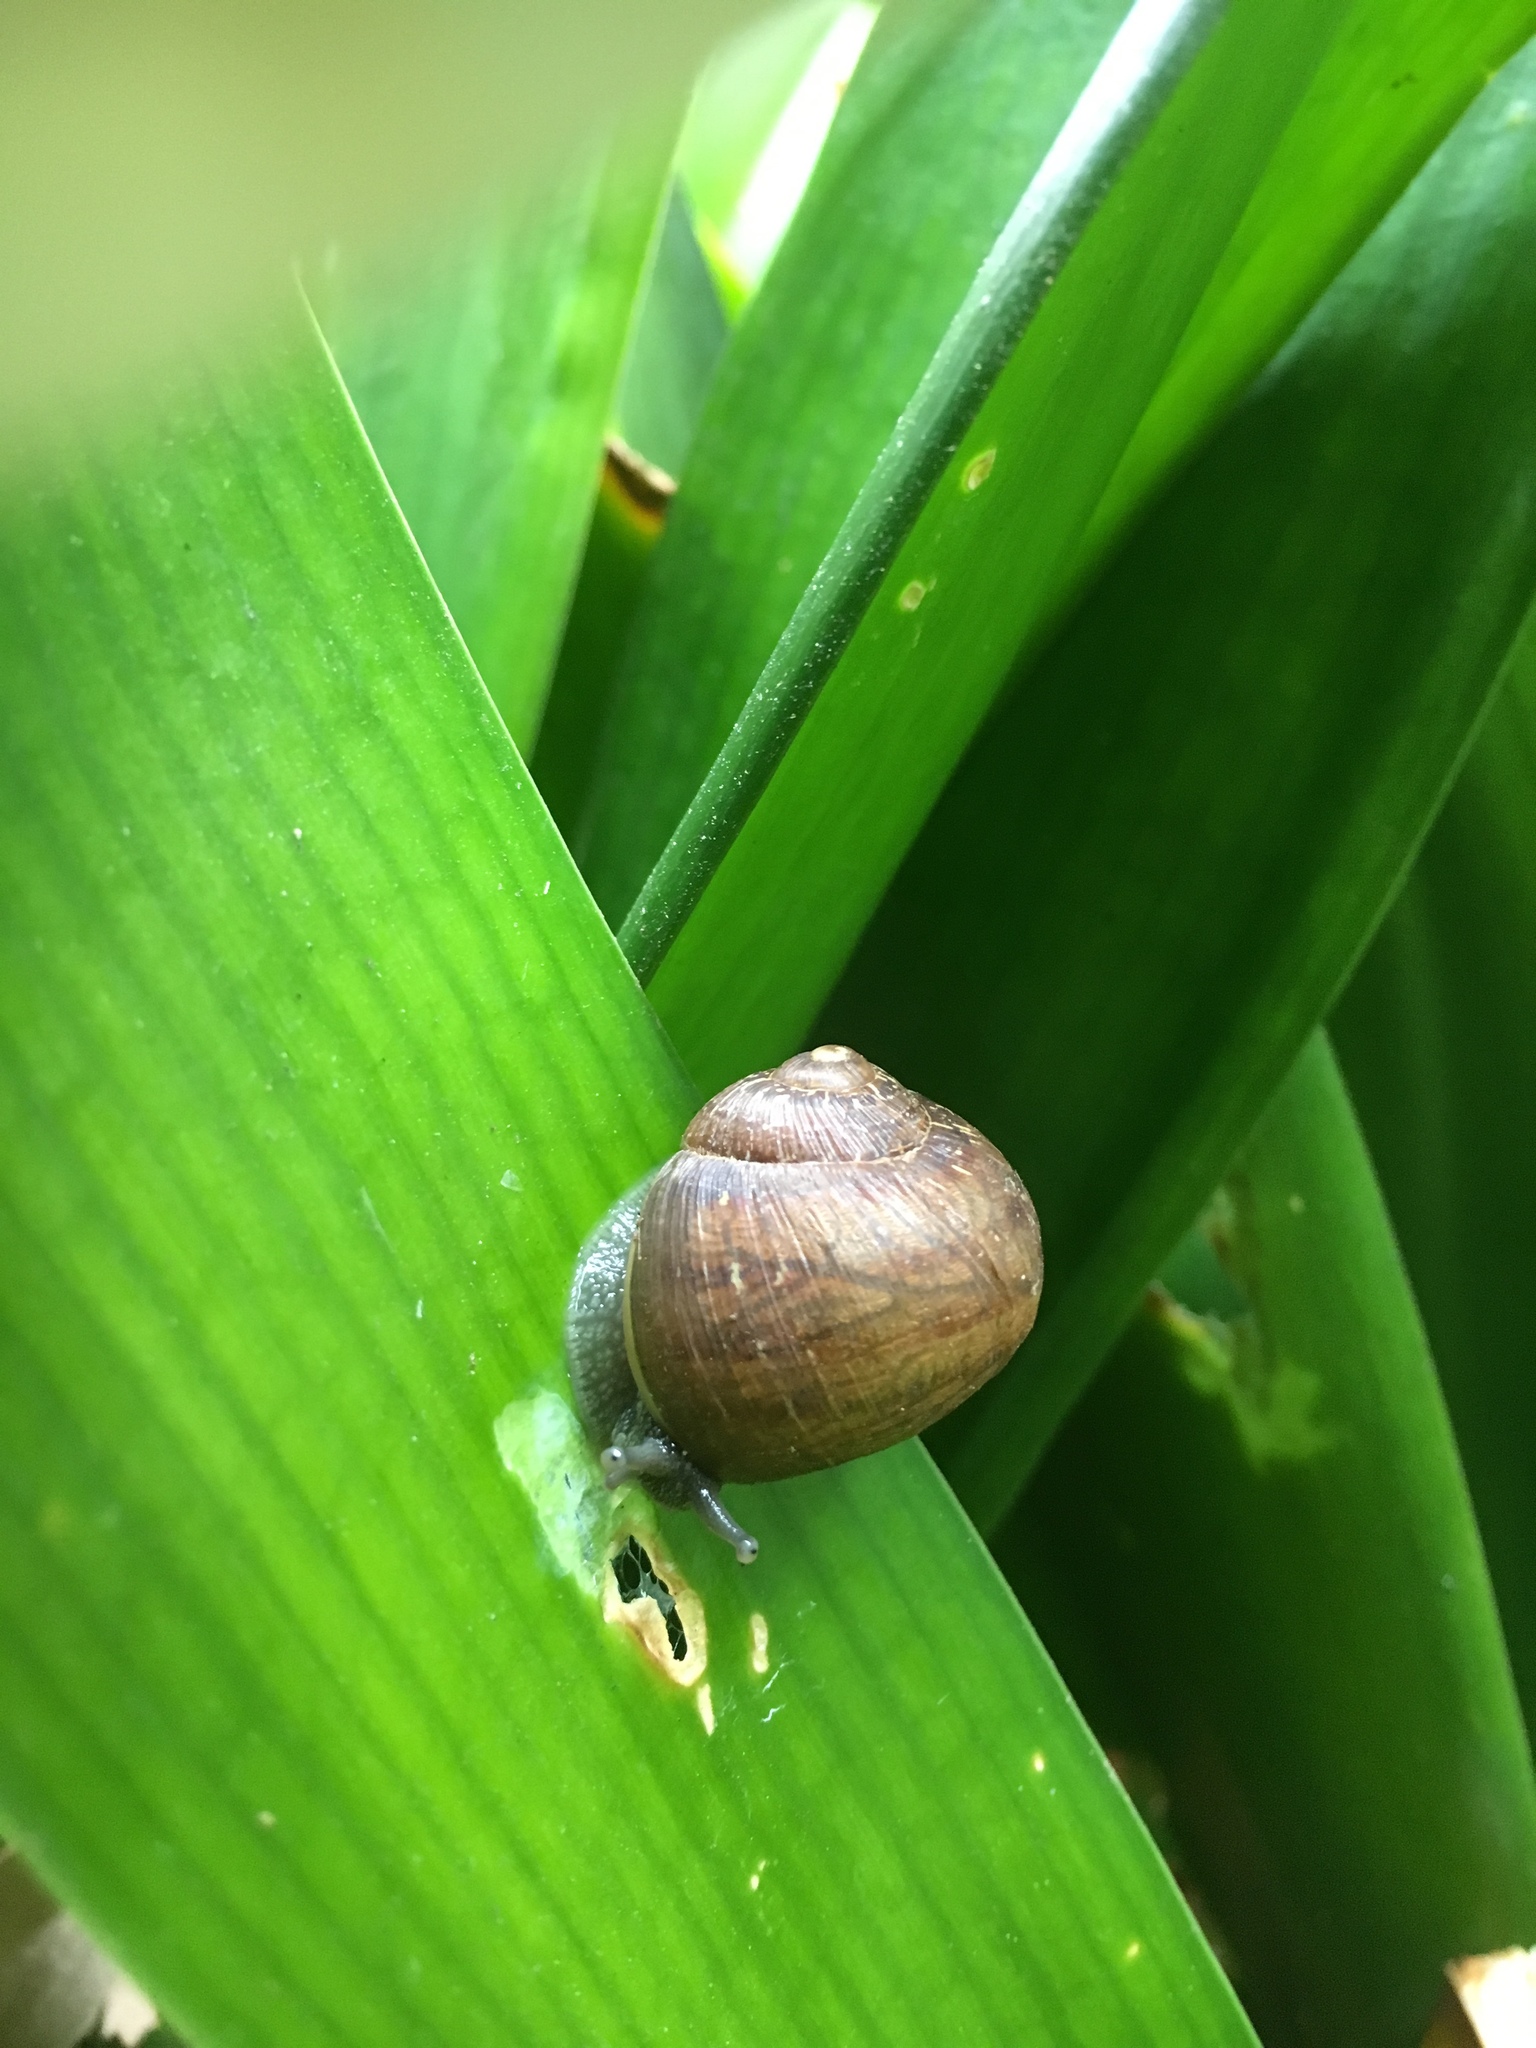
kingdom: Animalia
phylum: Mollusca
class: Gastropoda
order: Stylommatophora
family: Helicidae
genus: Cornu
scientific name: Cornu aspersum
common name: Brown garden snail
